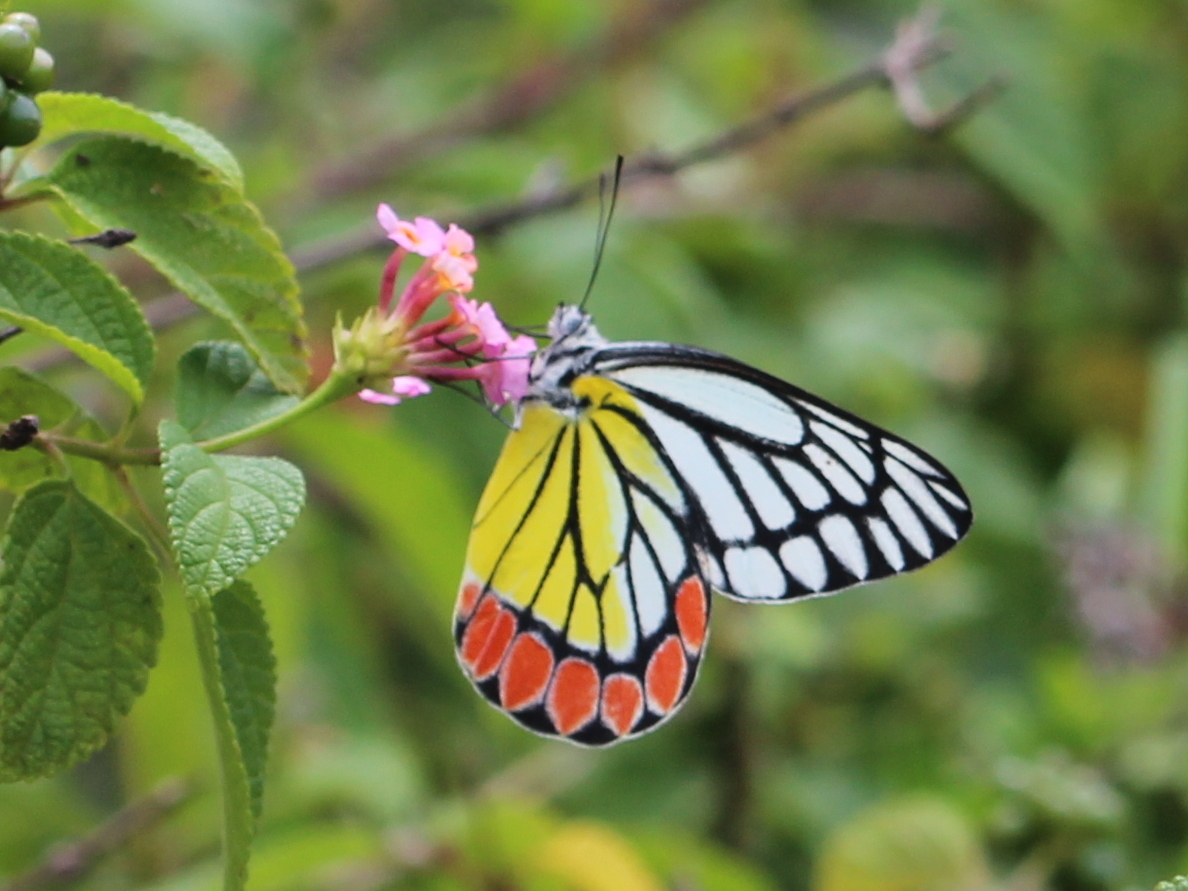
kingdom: Animalia
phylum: Arthropoda
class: Insecta
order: Lepidoptera
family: Pieridae
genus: Delias
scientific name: Delias eucharis
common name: Common jezebel
